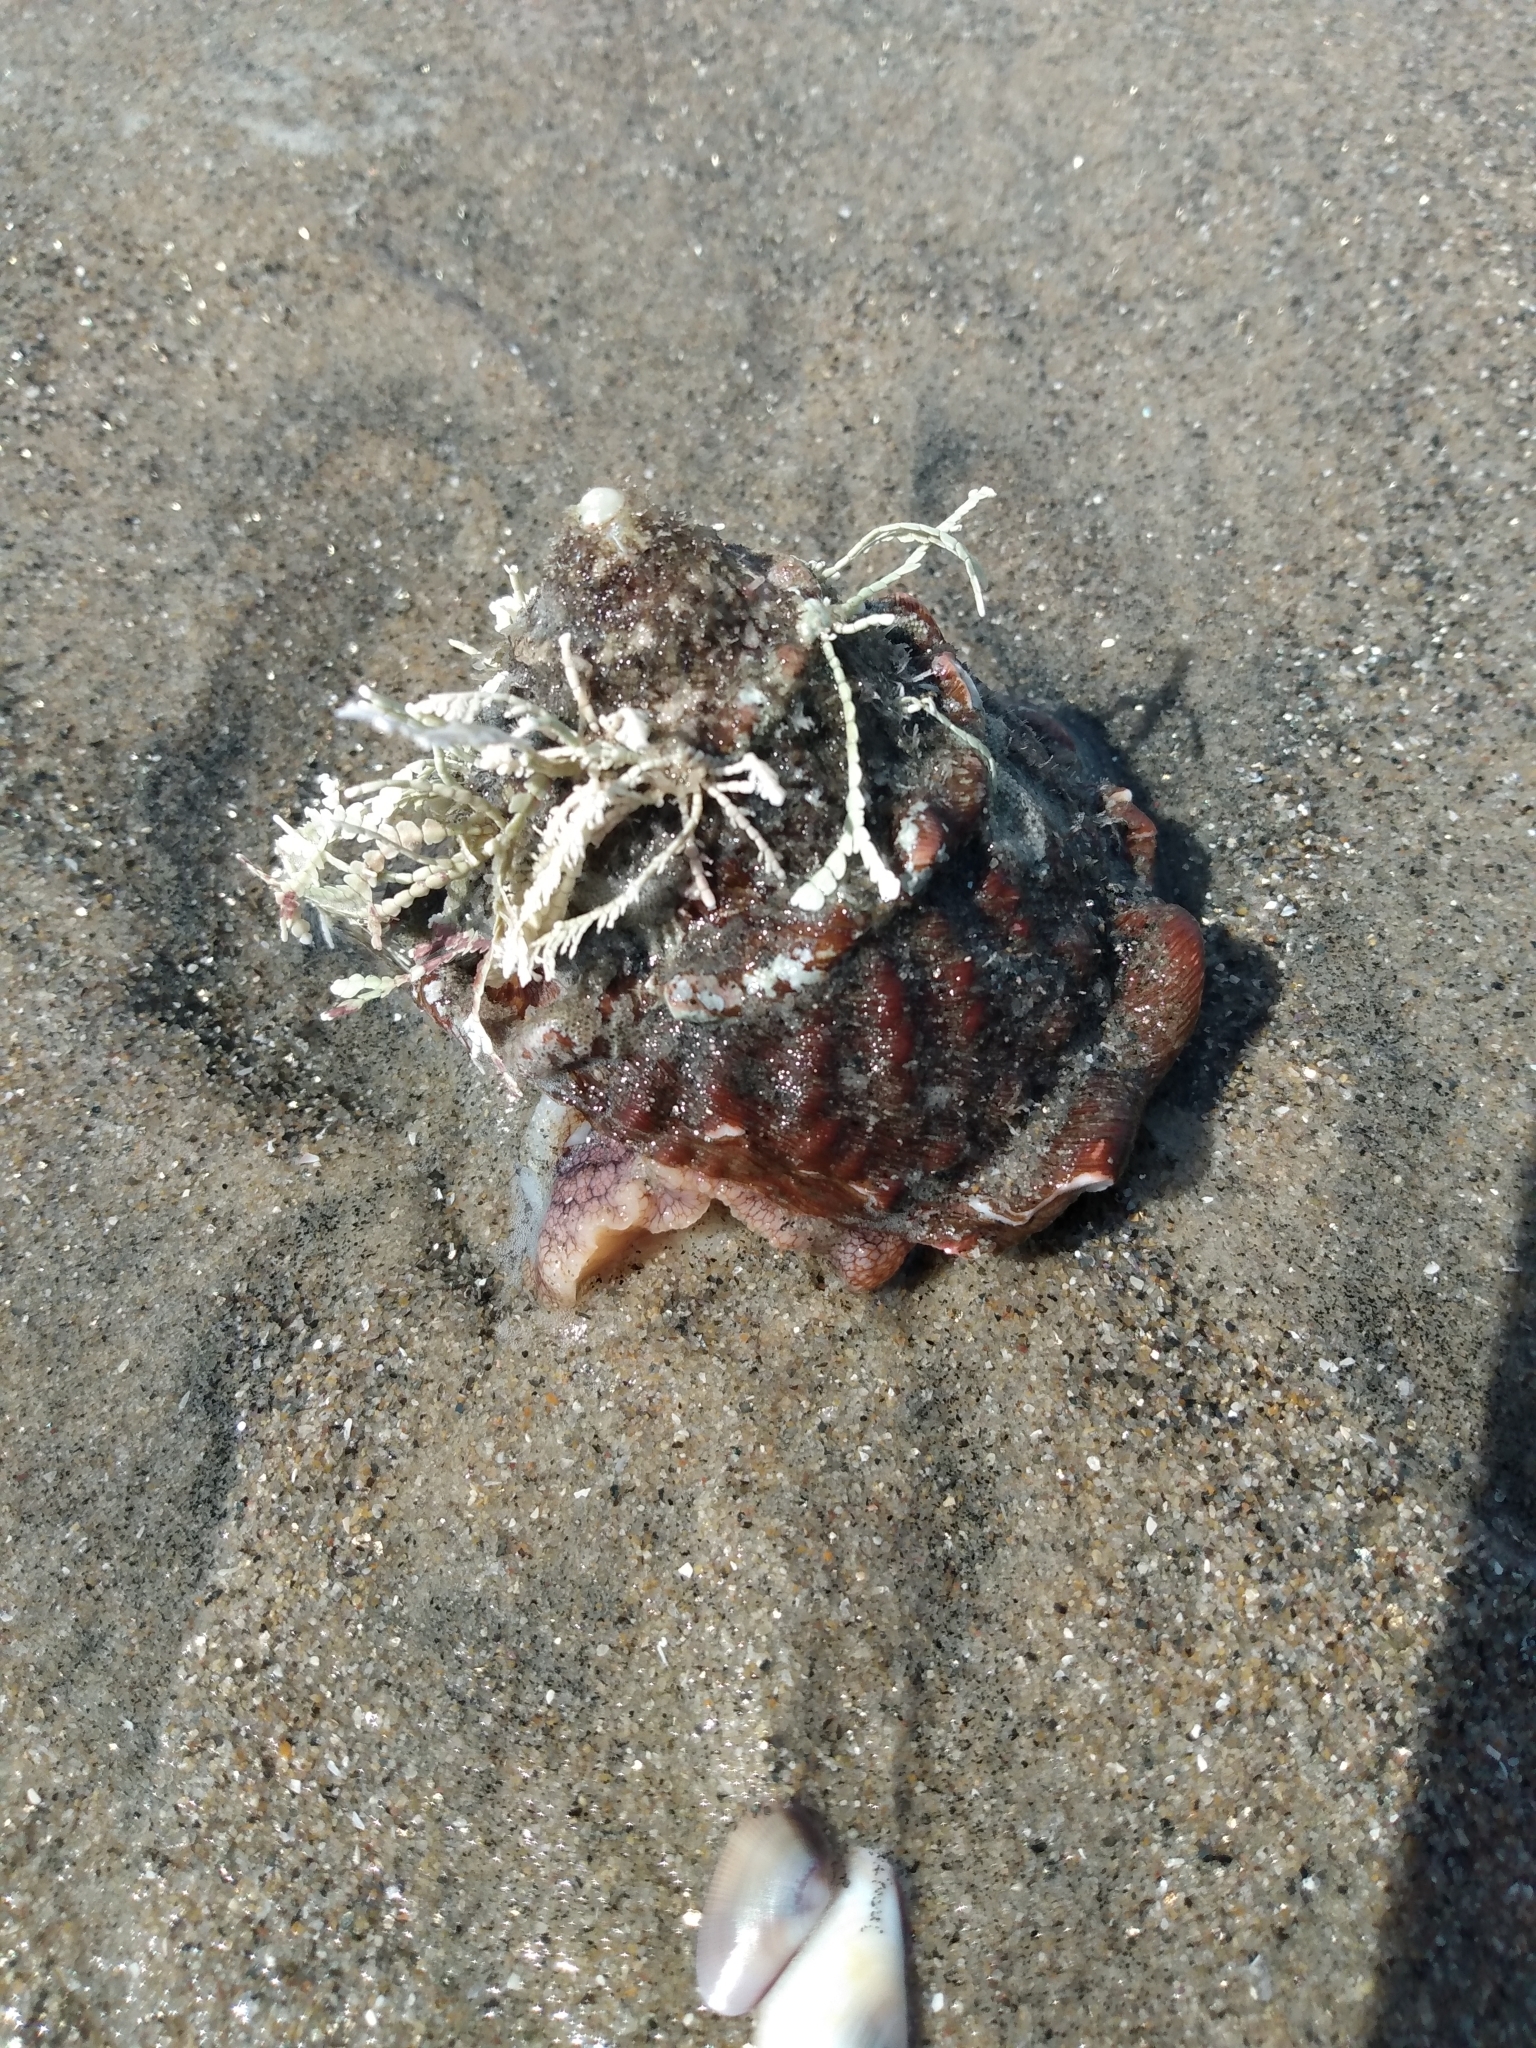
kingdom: Animalia
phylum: Mollusca
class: Gastropoda
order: Trochida
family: Turbinidae
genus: Megastraea
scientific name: Megastraea undosa
